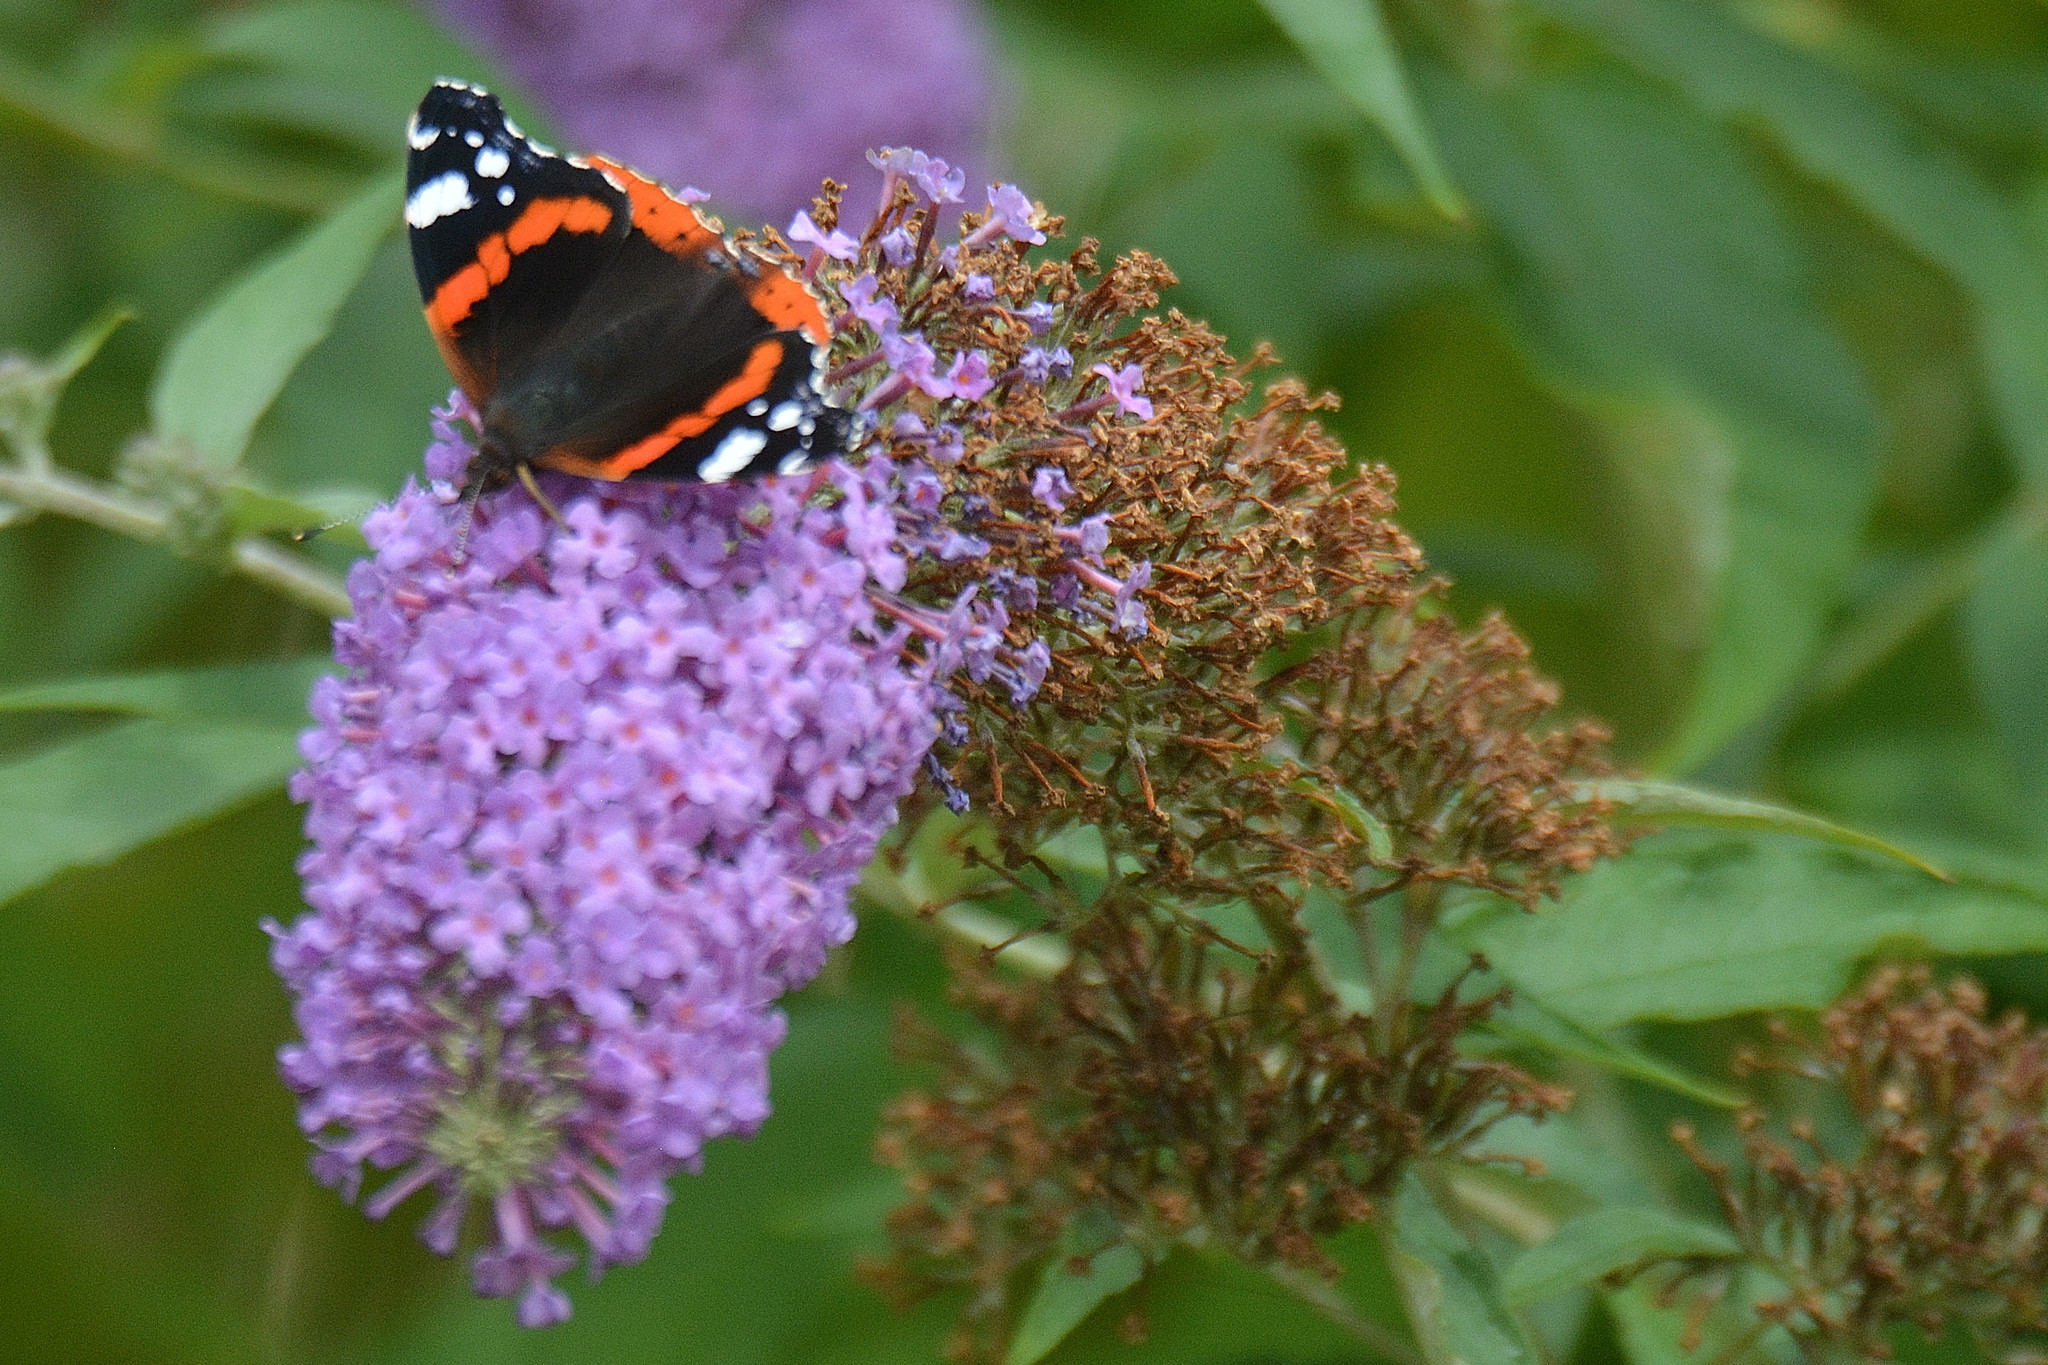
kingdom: Animalia
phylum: Arthropoda
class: Insecta
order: Lepidoptera
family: Nymphalidae
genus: Vanessa
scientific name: Vanessa atalanta
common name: Red admiral
